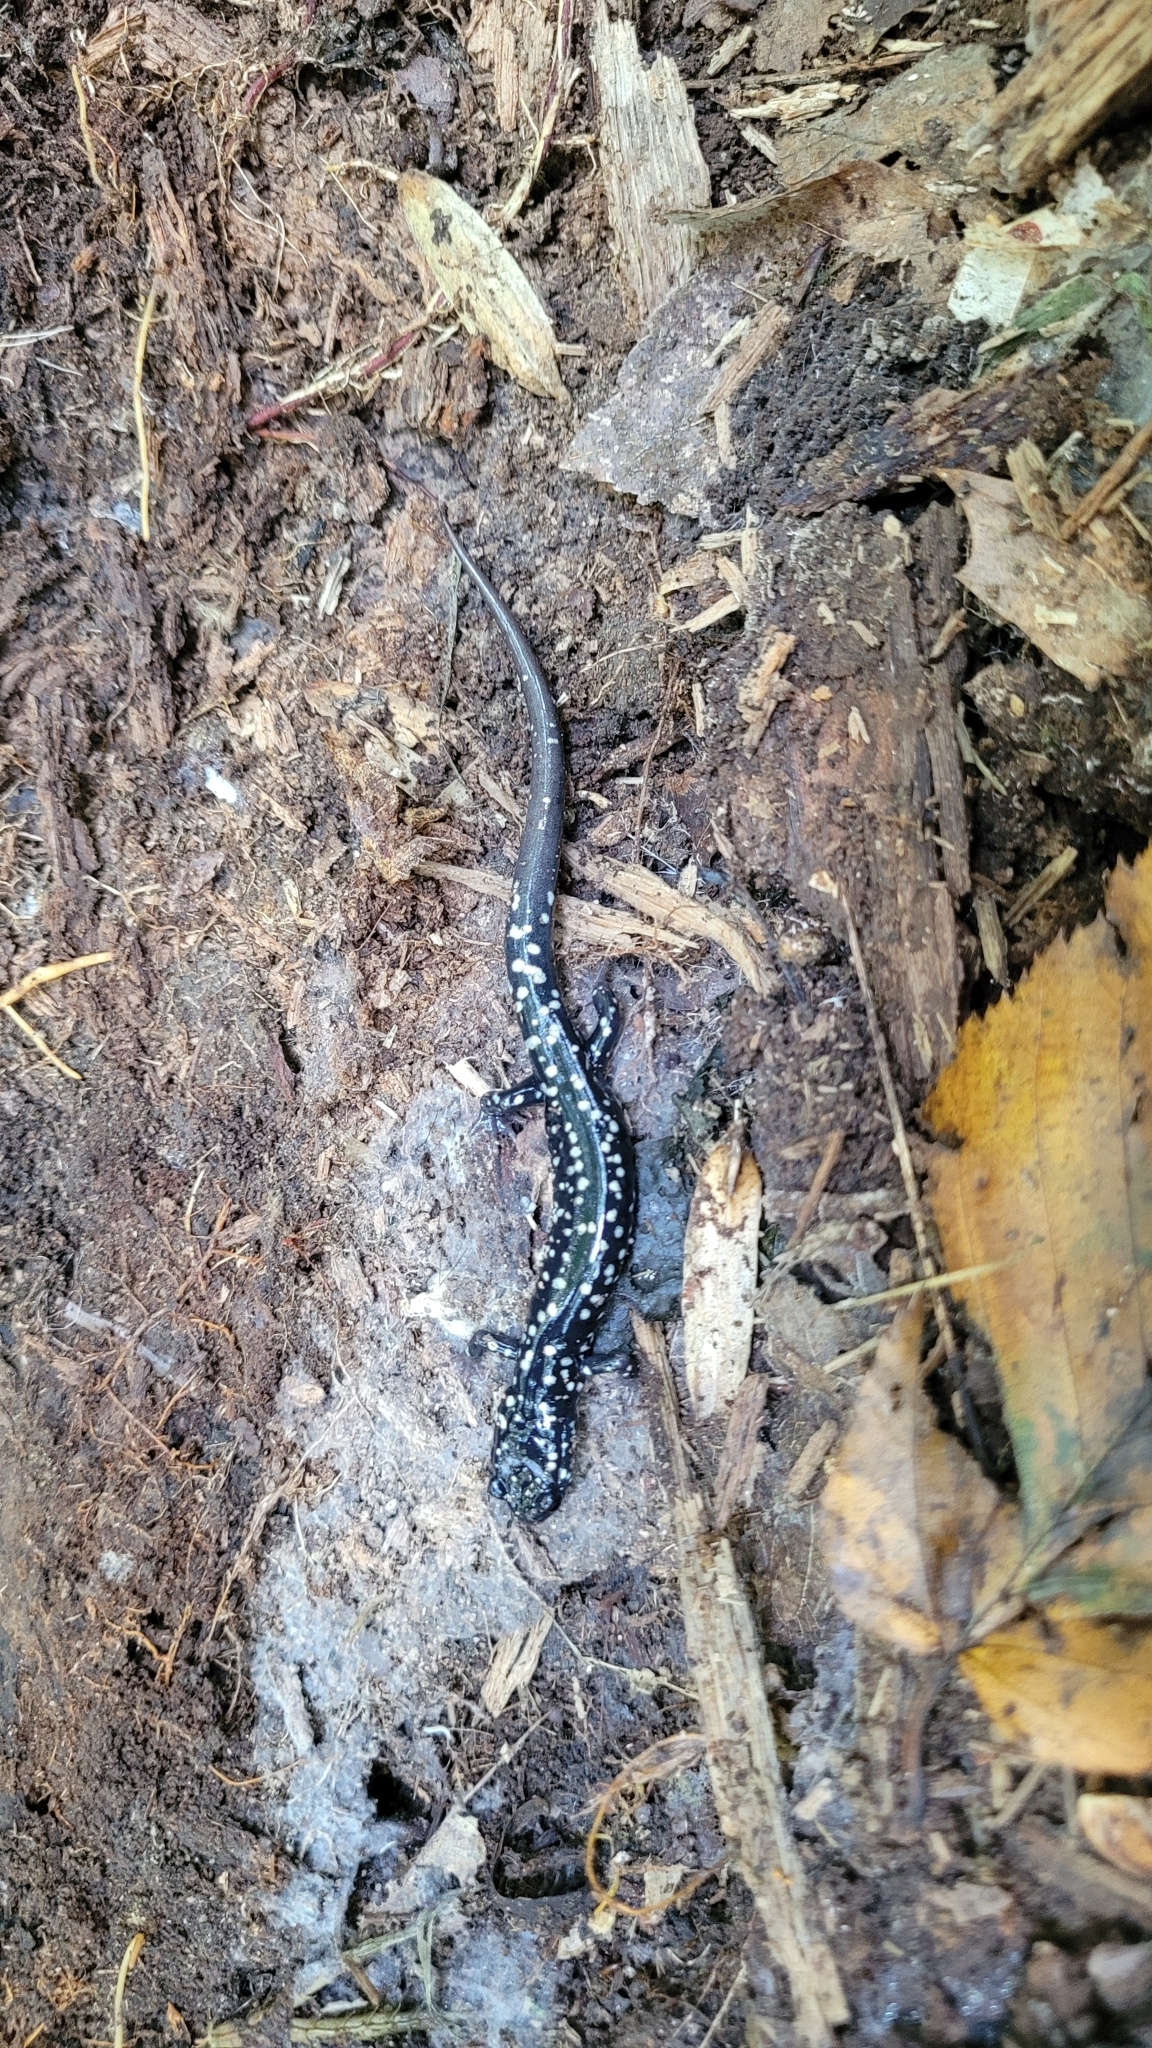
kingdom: Animalia
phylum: Chordata
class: Amphibia
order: Caudata
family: Plethodontidae
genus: Plethodon
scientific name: Plethodon glutinosus
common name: Northern slimy salamander
